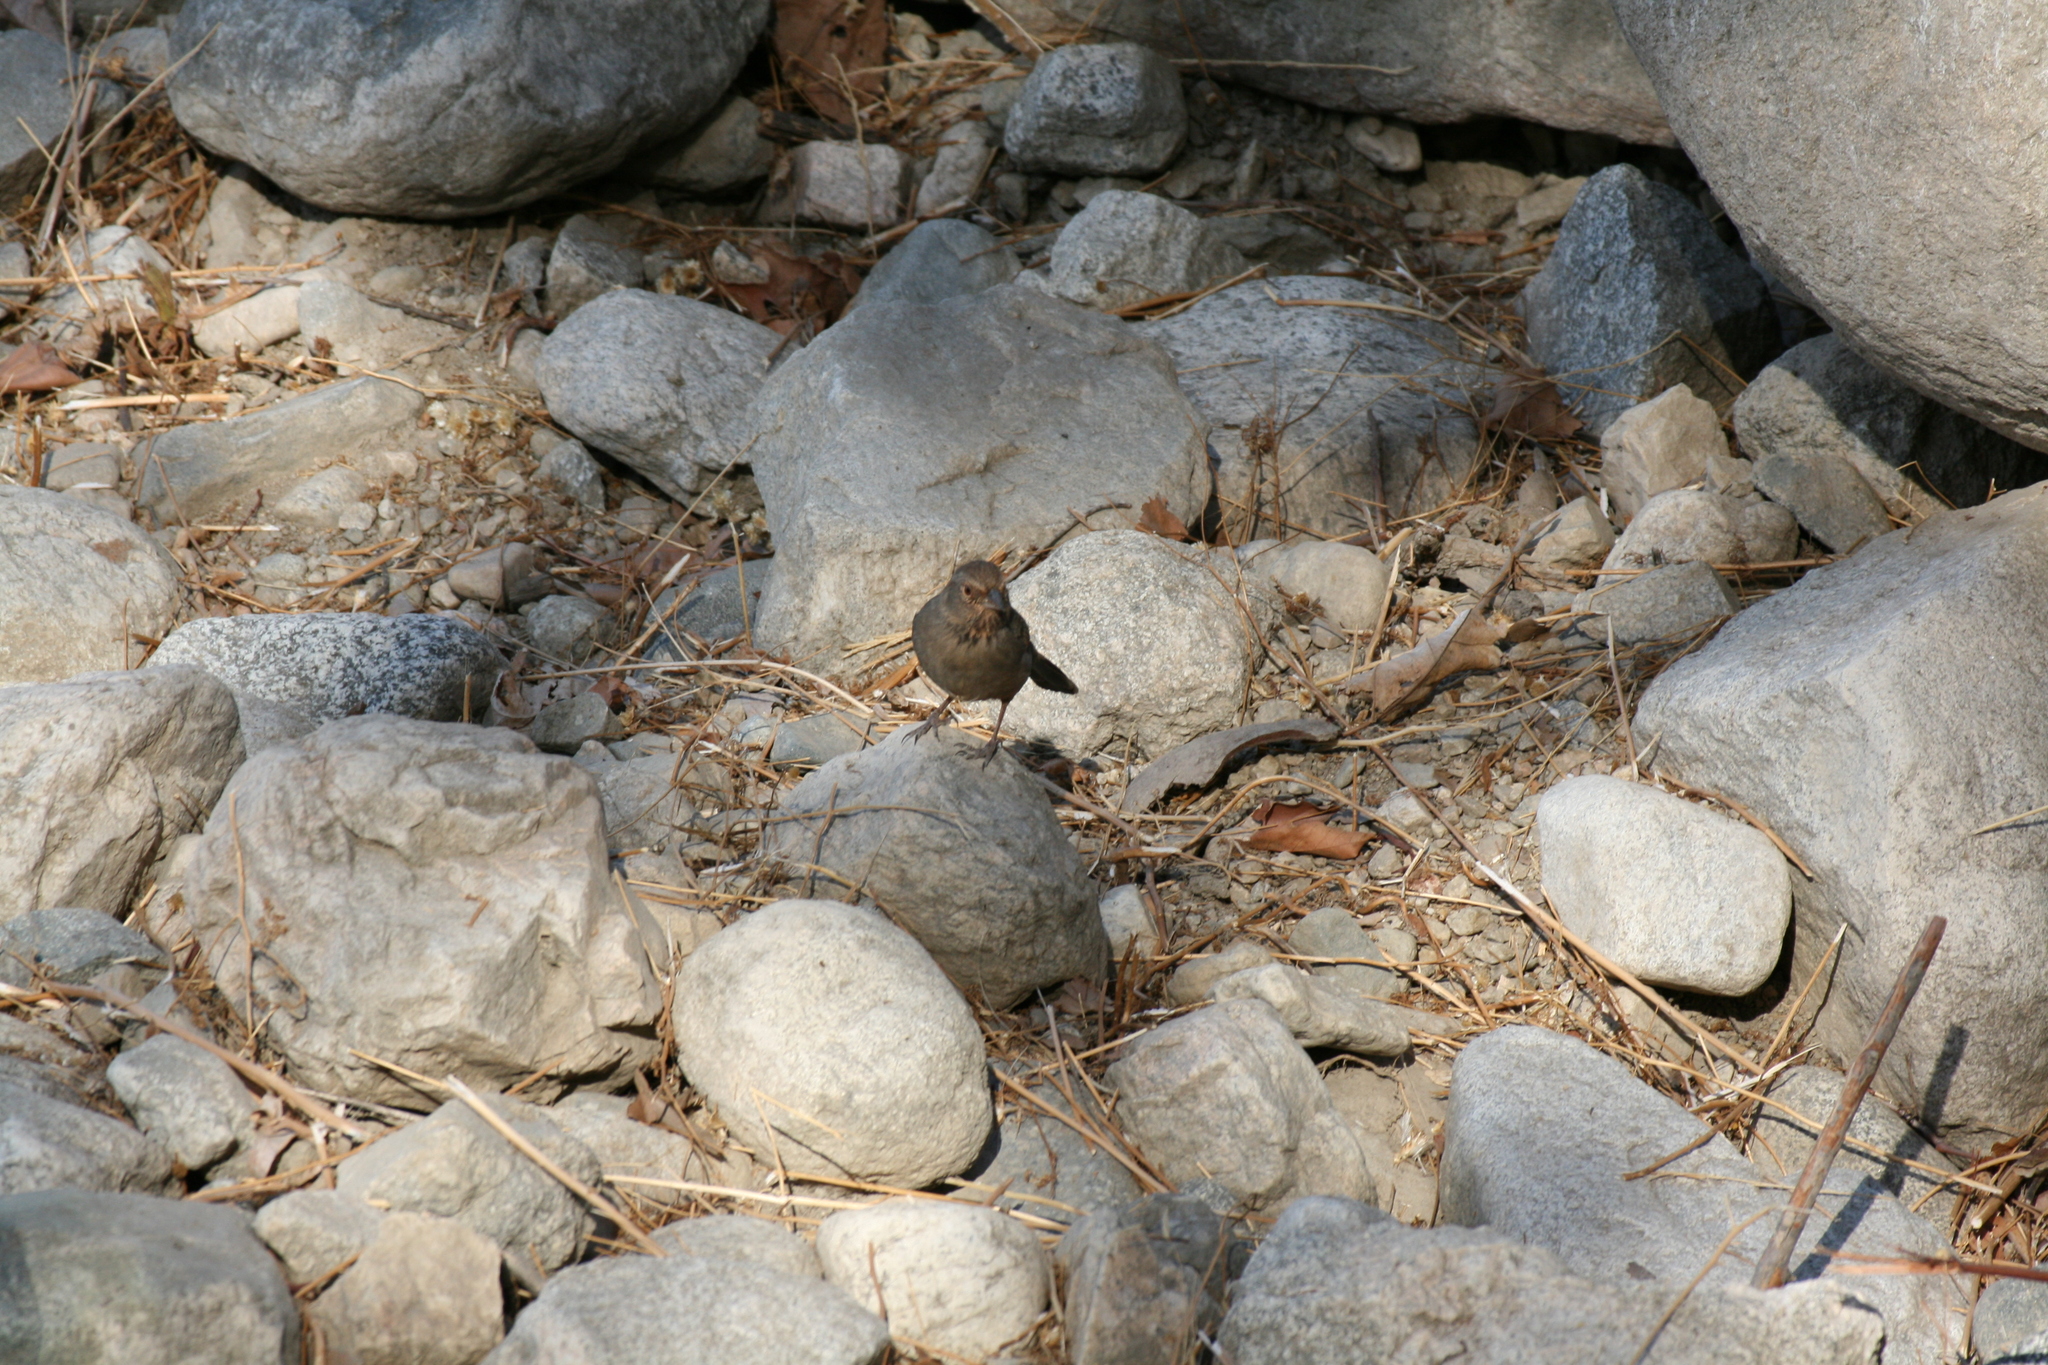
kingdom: Animalia
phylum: Chordata
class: Aves
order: Passeriformes
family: Passerellidae
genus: Melozone
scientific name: Melozone crissalis
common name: California towhee
